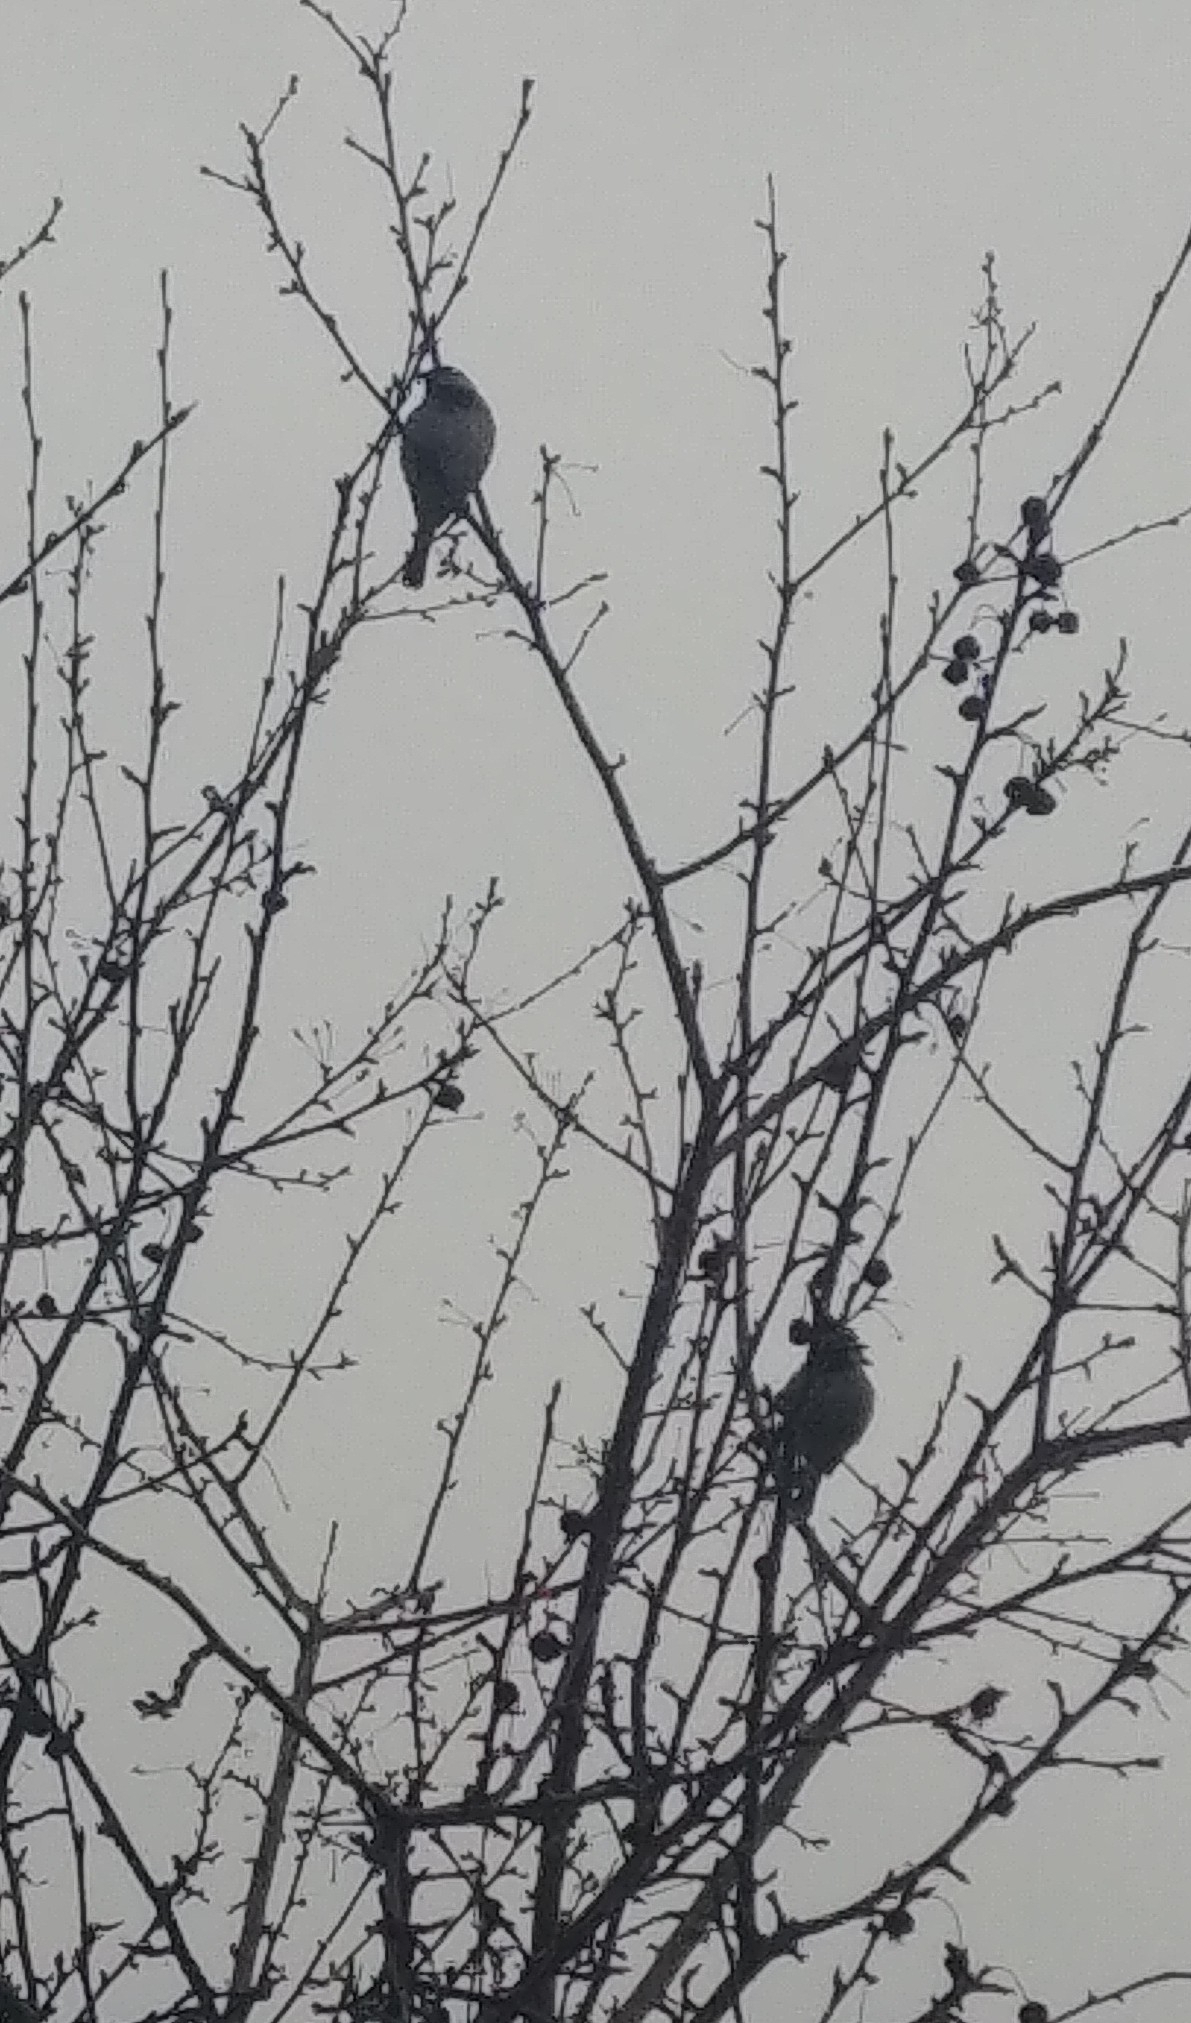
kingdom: Animalia
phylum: Chordata
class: Aves
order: Passeriformes
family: Passeridae
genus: Passer
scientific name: Passer domesticus
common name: House sparrow
